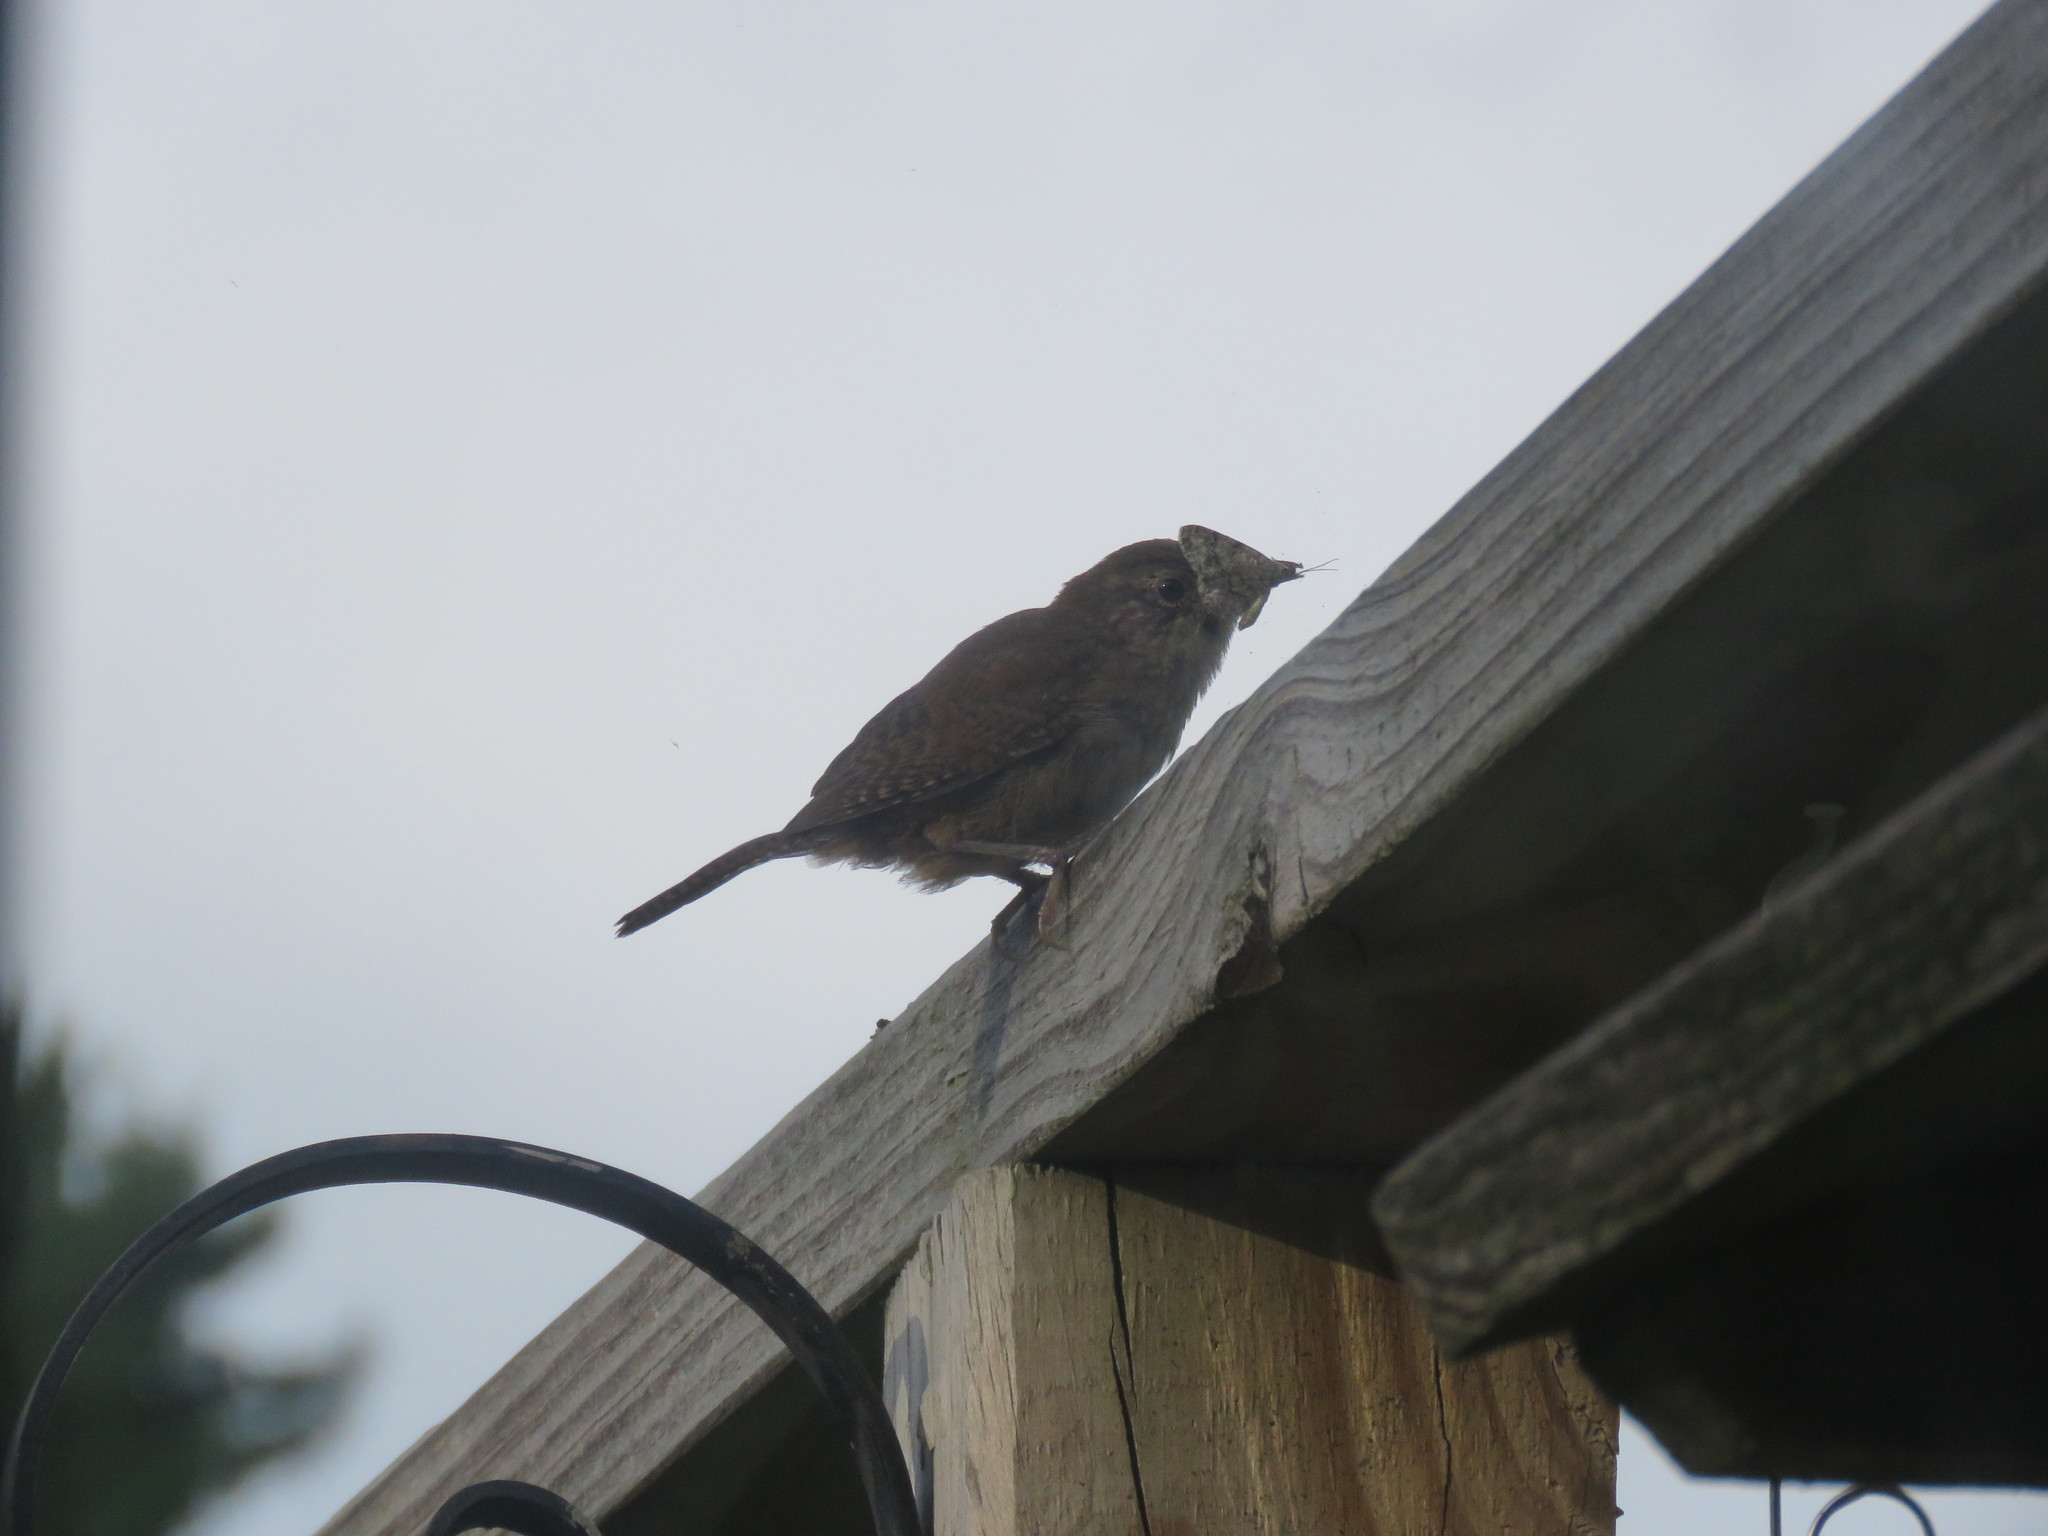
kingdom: Animalia
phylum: Chordata
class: Aves
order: Passeriformes
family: Troglodytidae
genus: Troglodytes
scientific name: Troglodytes aedon
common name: House wren
